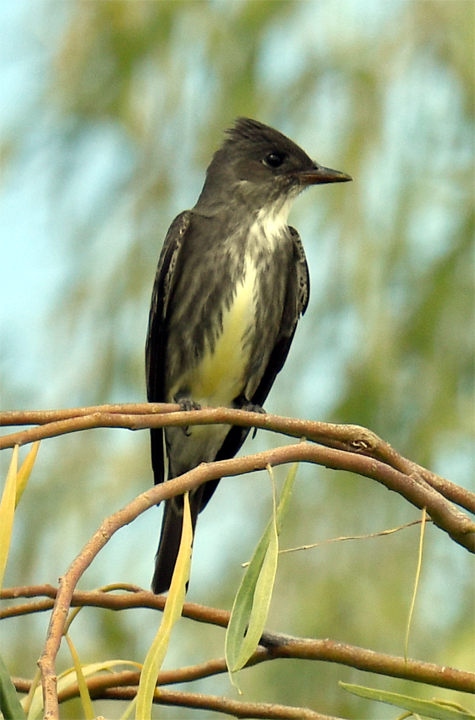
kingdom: Animalia
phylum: Chordata
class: Aves
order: Passeriformes
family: Tyrannidae
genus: Contopus
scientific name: Contopus cooperi
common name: Olive-sided flycatcher
